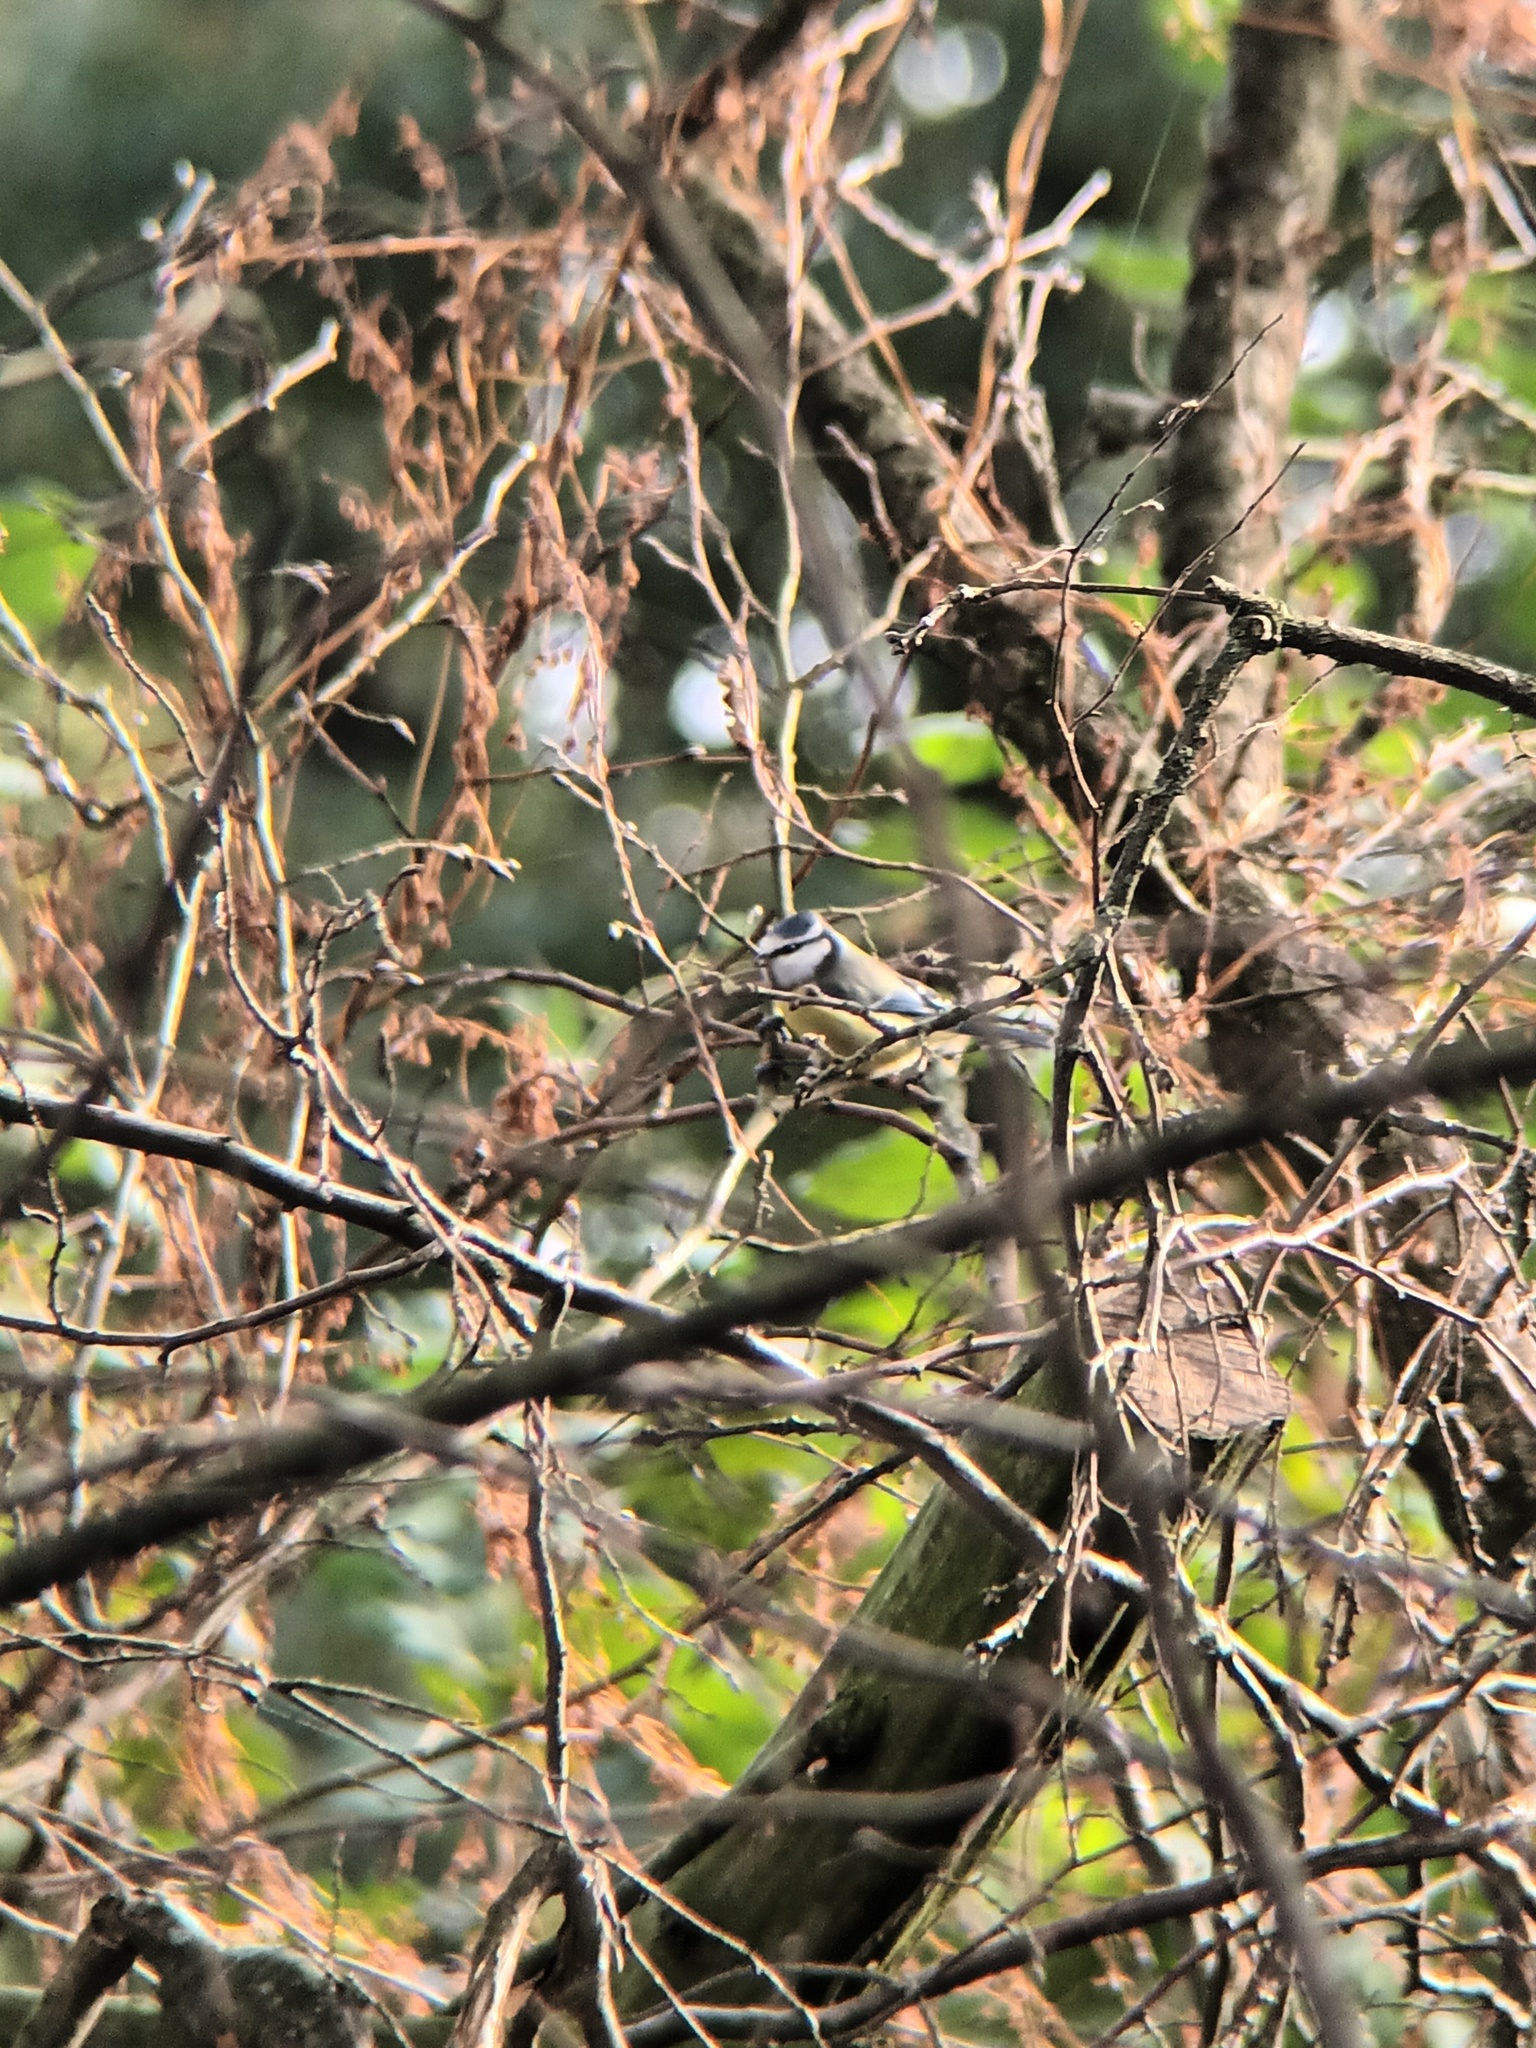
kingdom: Animalia
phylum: Chordata
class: Aves
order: Passeriformes
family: Paridae
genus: Cyanistes
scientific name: Cyanistes caeruleus
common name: Eurasian blue tit
